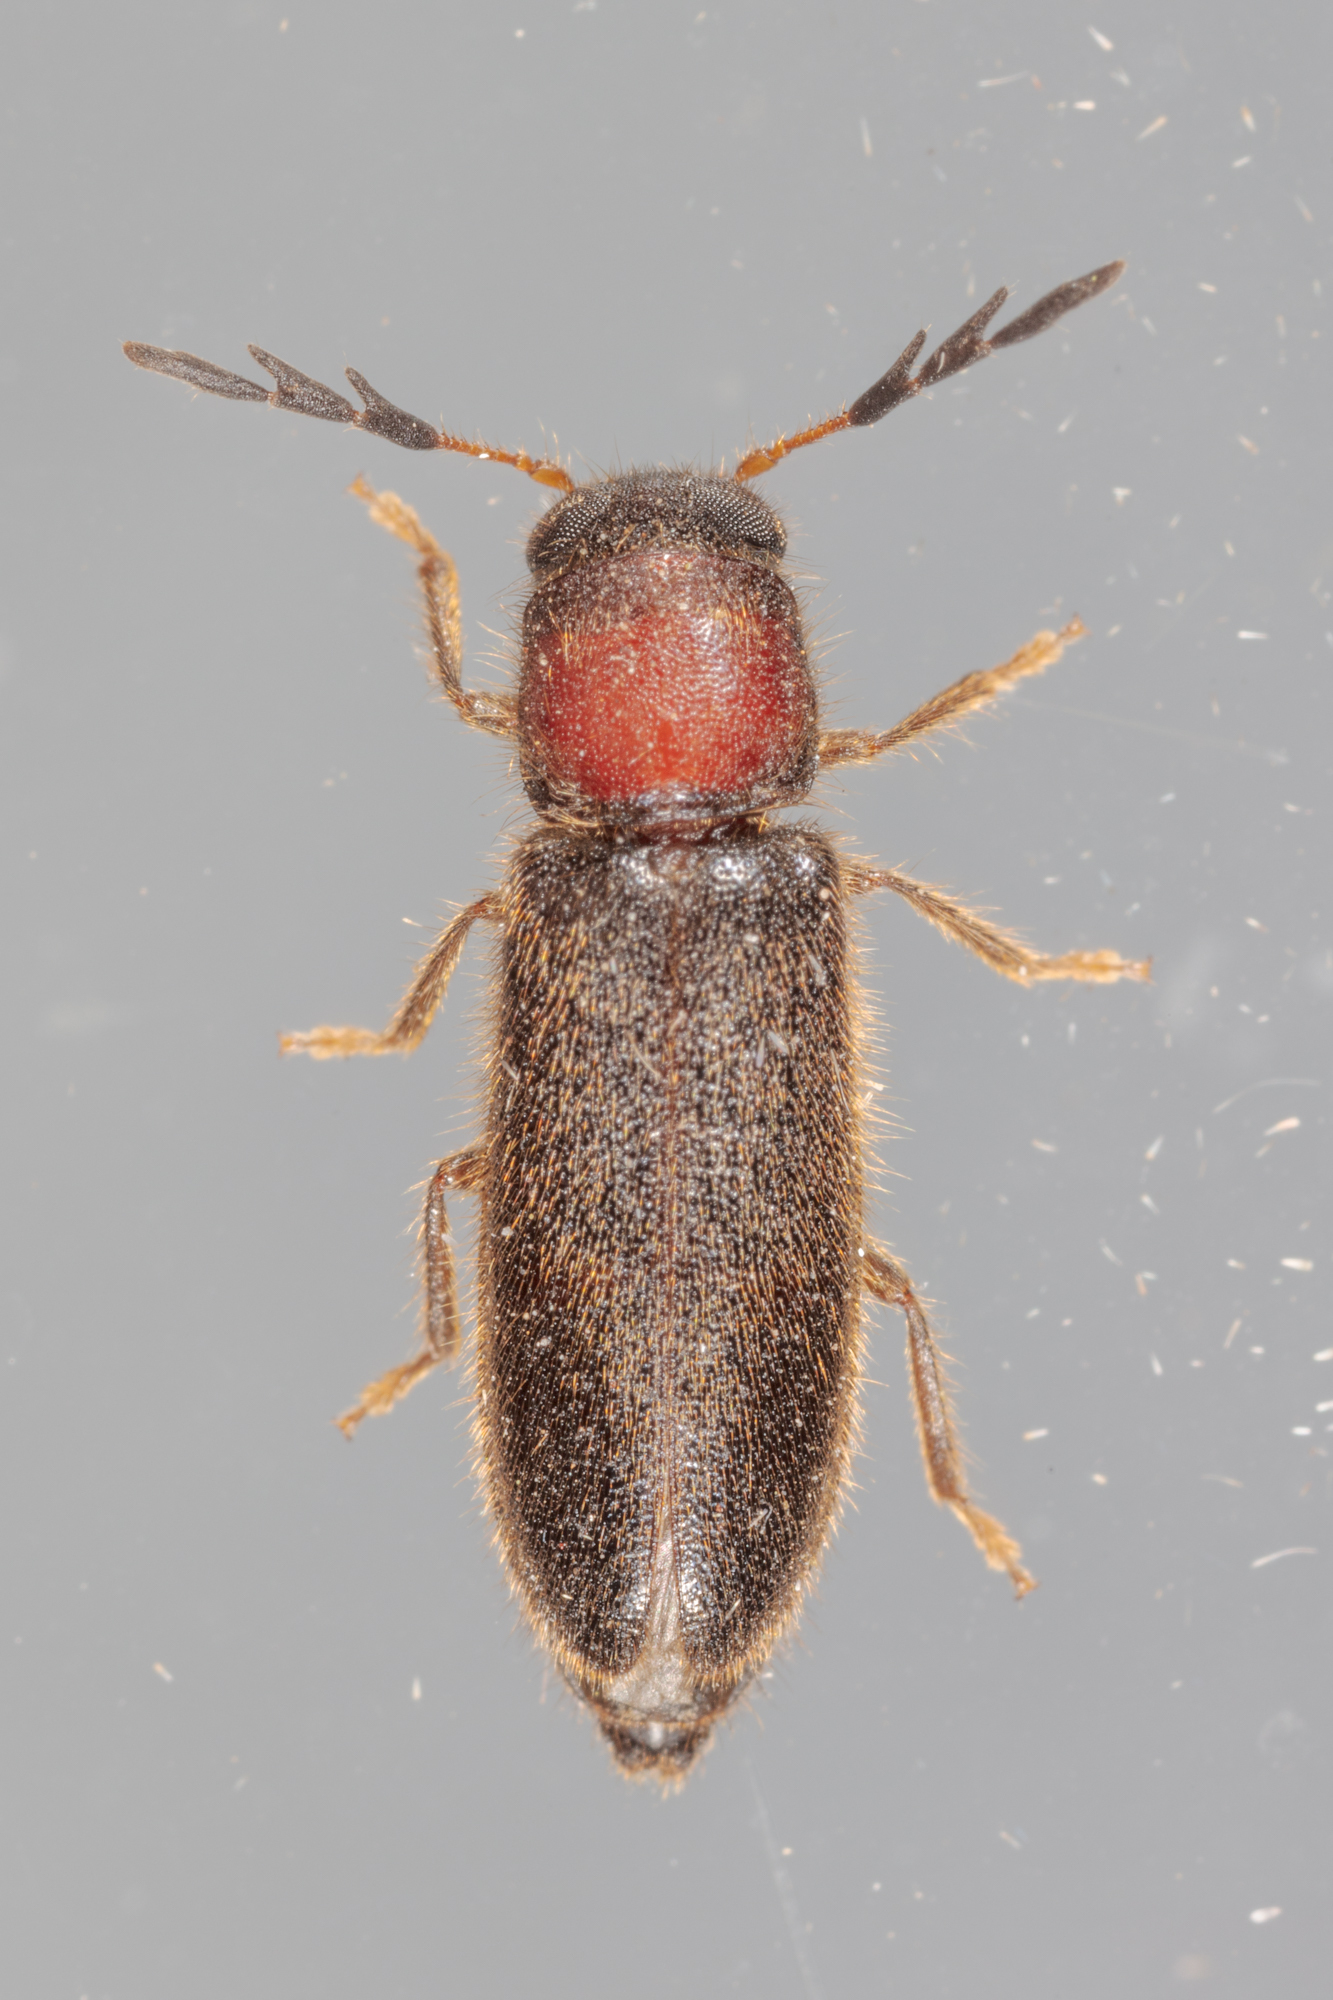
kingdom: Animalia
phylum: Arthropoda
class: Insecta
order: Coleoptera
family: Cleridae
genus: Neorthopleura
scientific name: Neorthopleura texana
